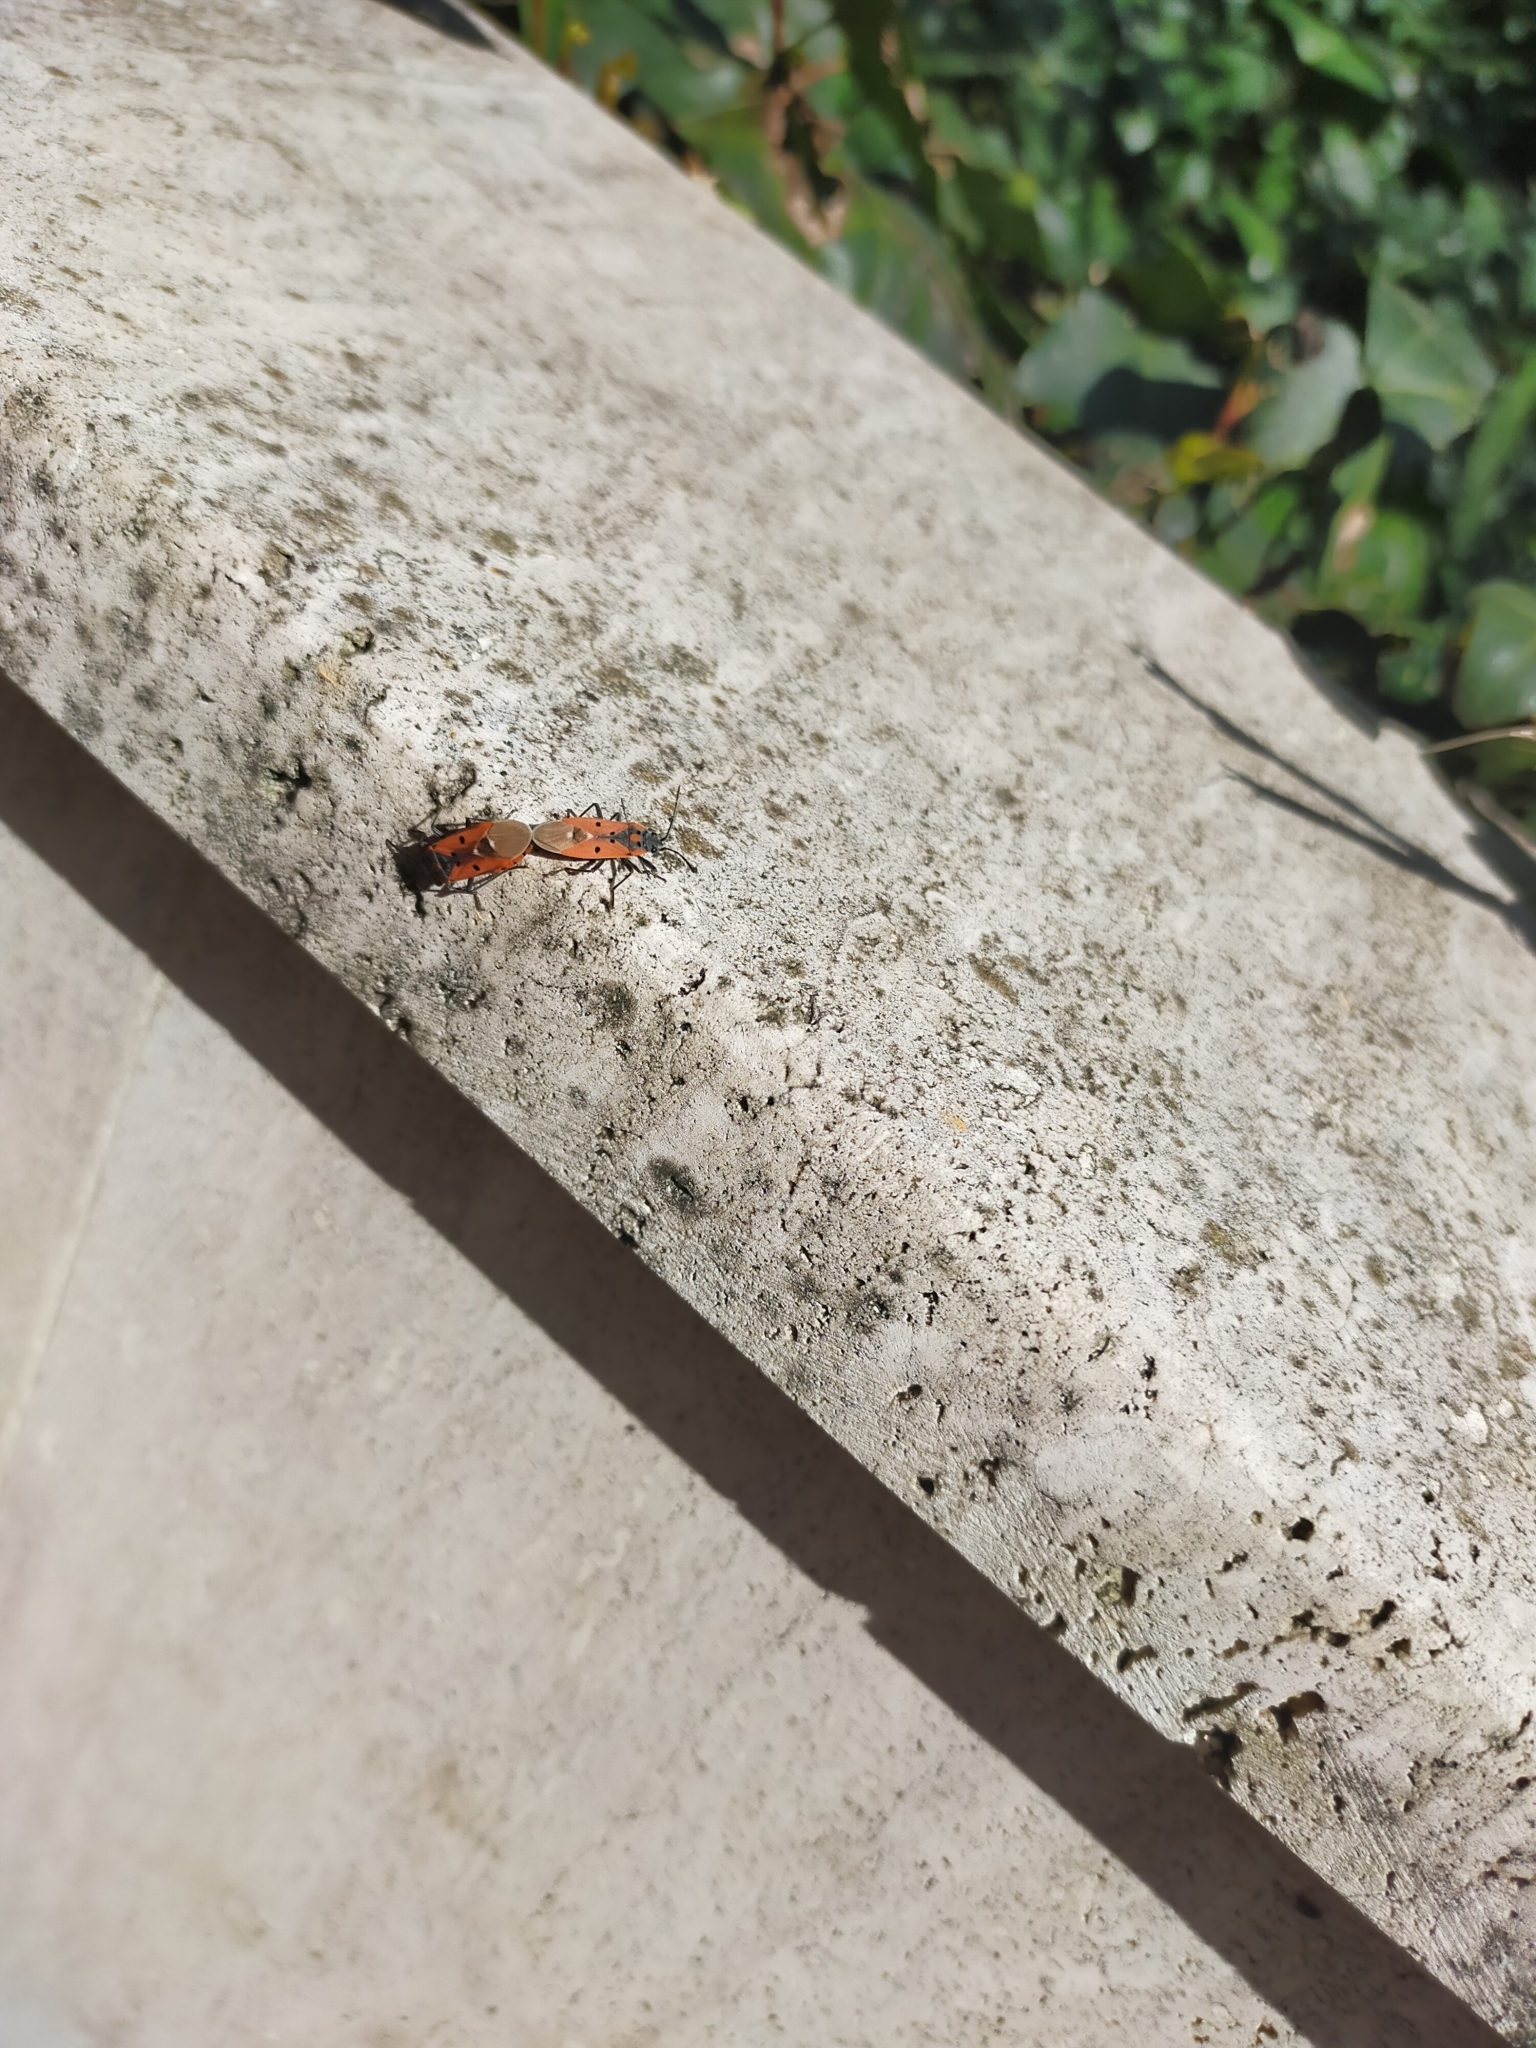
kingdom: Animalia
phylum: Arthropoda
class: Insecta
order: Hemiptera
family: Lygaeidae
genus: Lygaeus
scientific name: Lygaeus creticus
